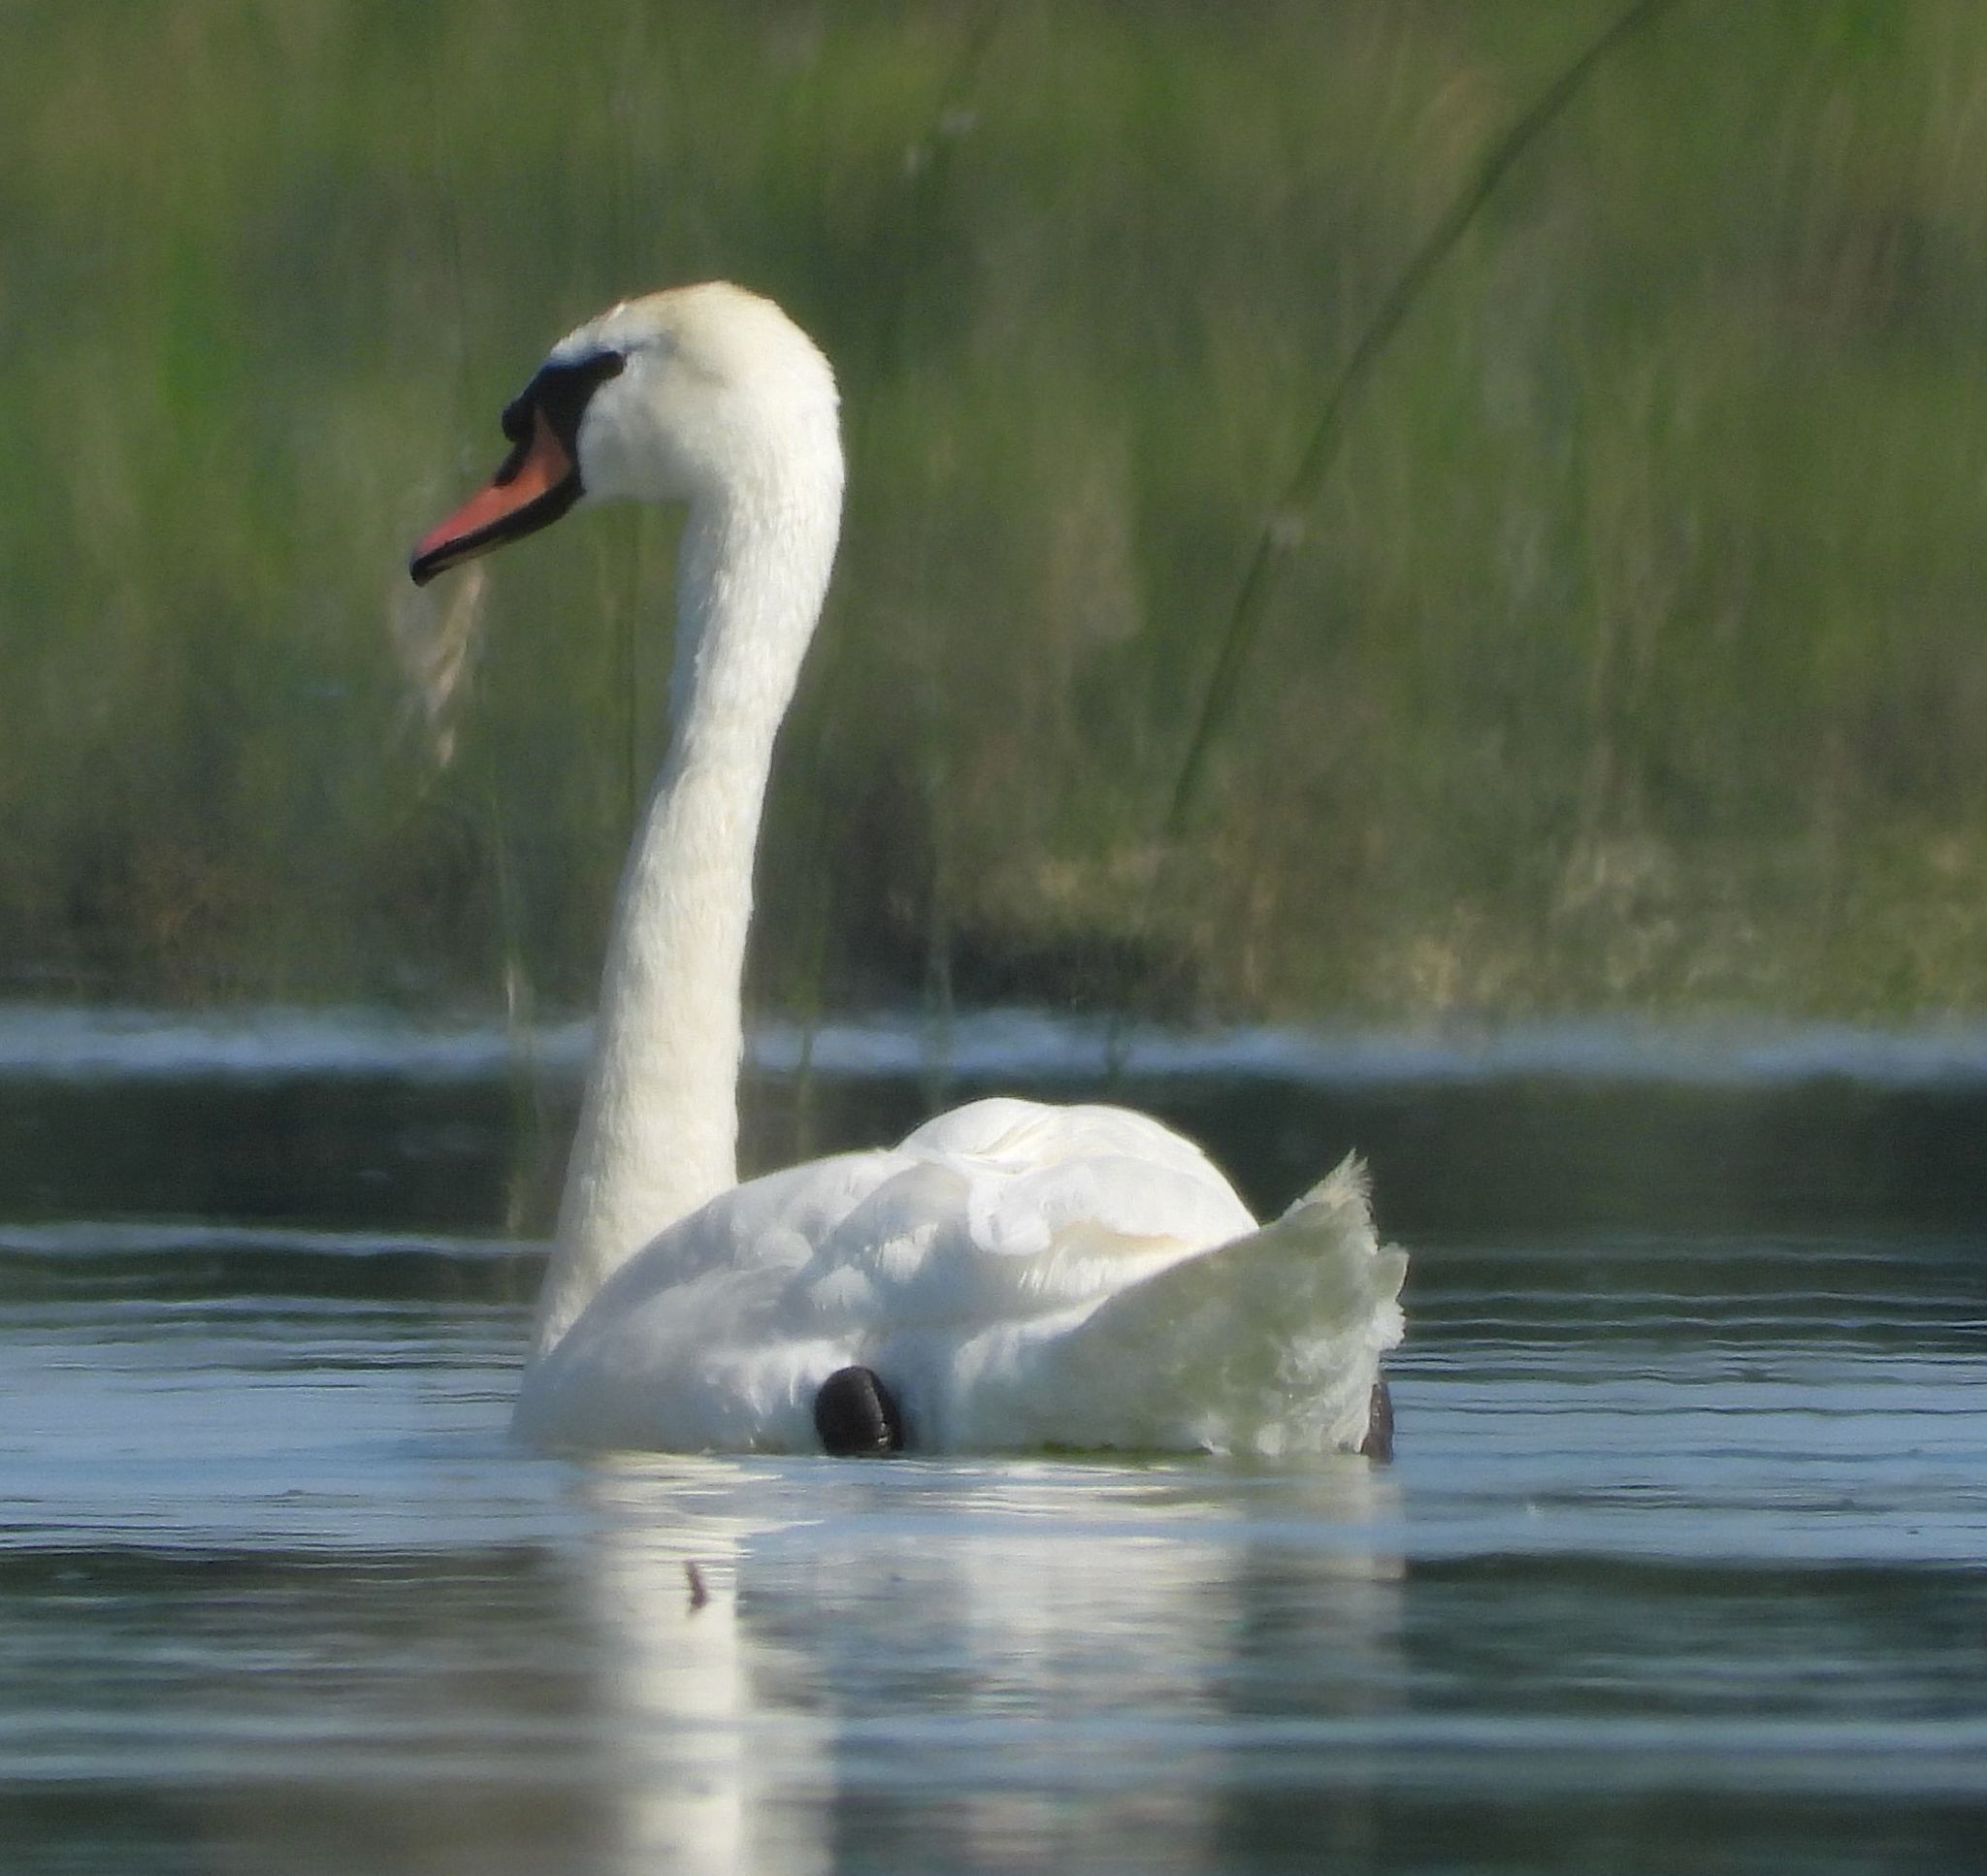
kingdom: Animalia
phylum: Chordata
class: Aves
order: Anseriformes
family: Anatidae
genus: Cygnus
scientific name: Cygnus olor
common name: Mute swan
